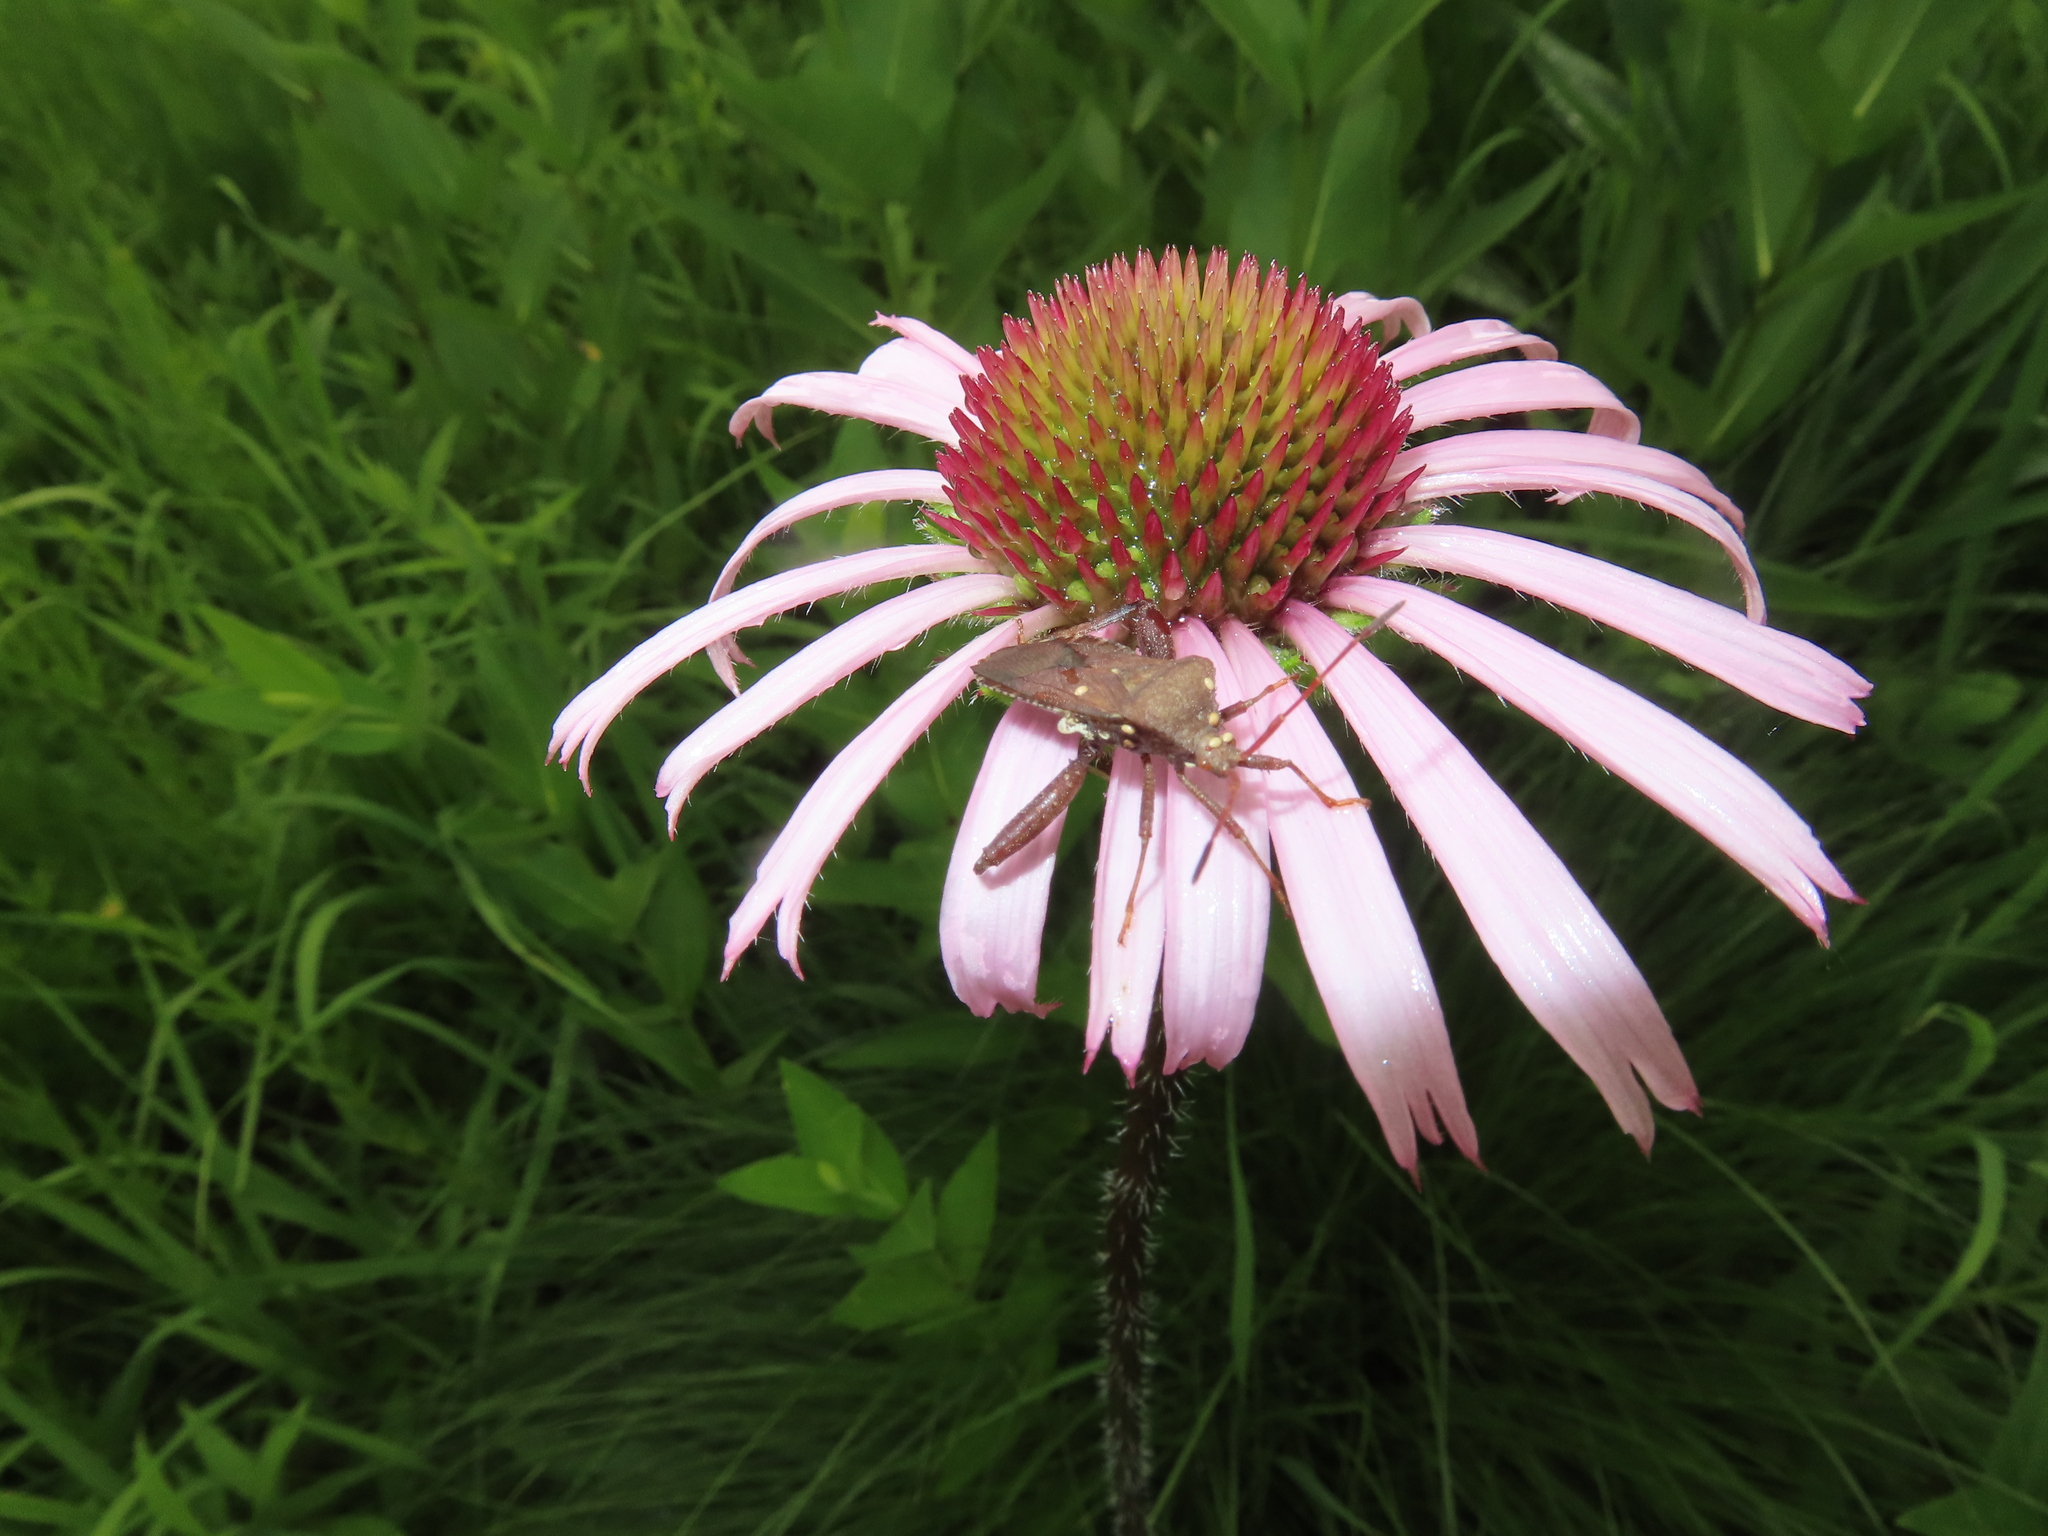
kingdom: Animalia
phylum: Arthropoda
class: Insecta
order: Hemiptera
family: Coreidae
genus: Euthochtha
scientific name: Euthochtha galeator
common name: Helmeted squash bug
